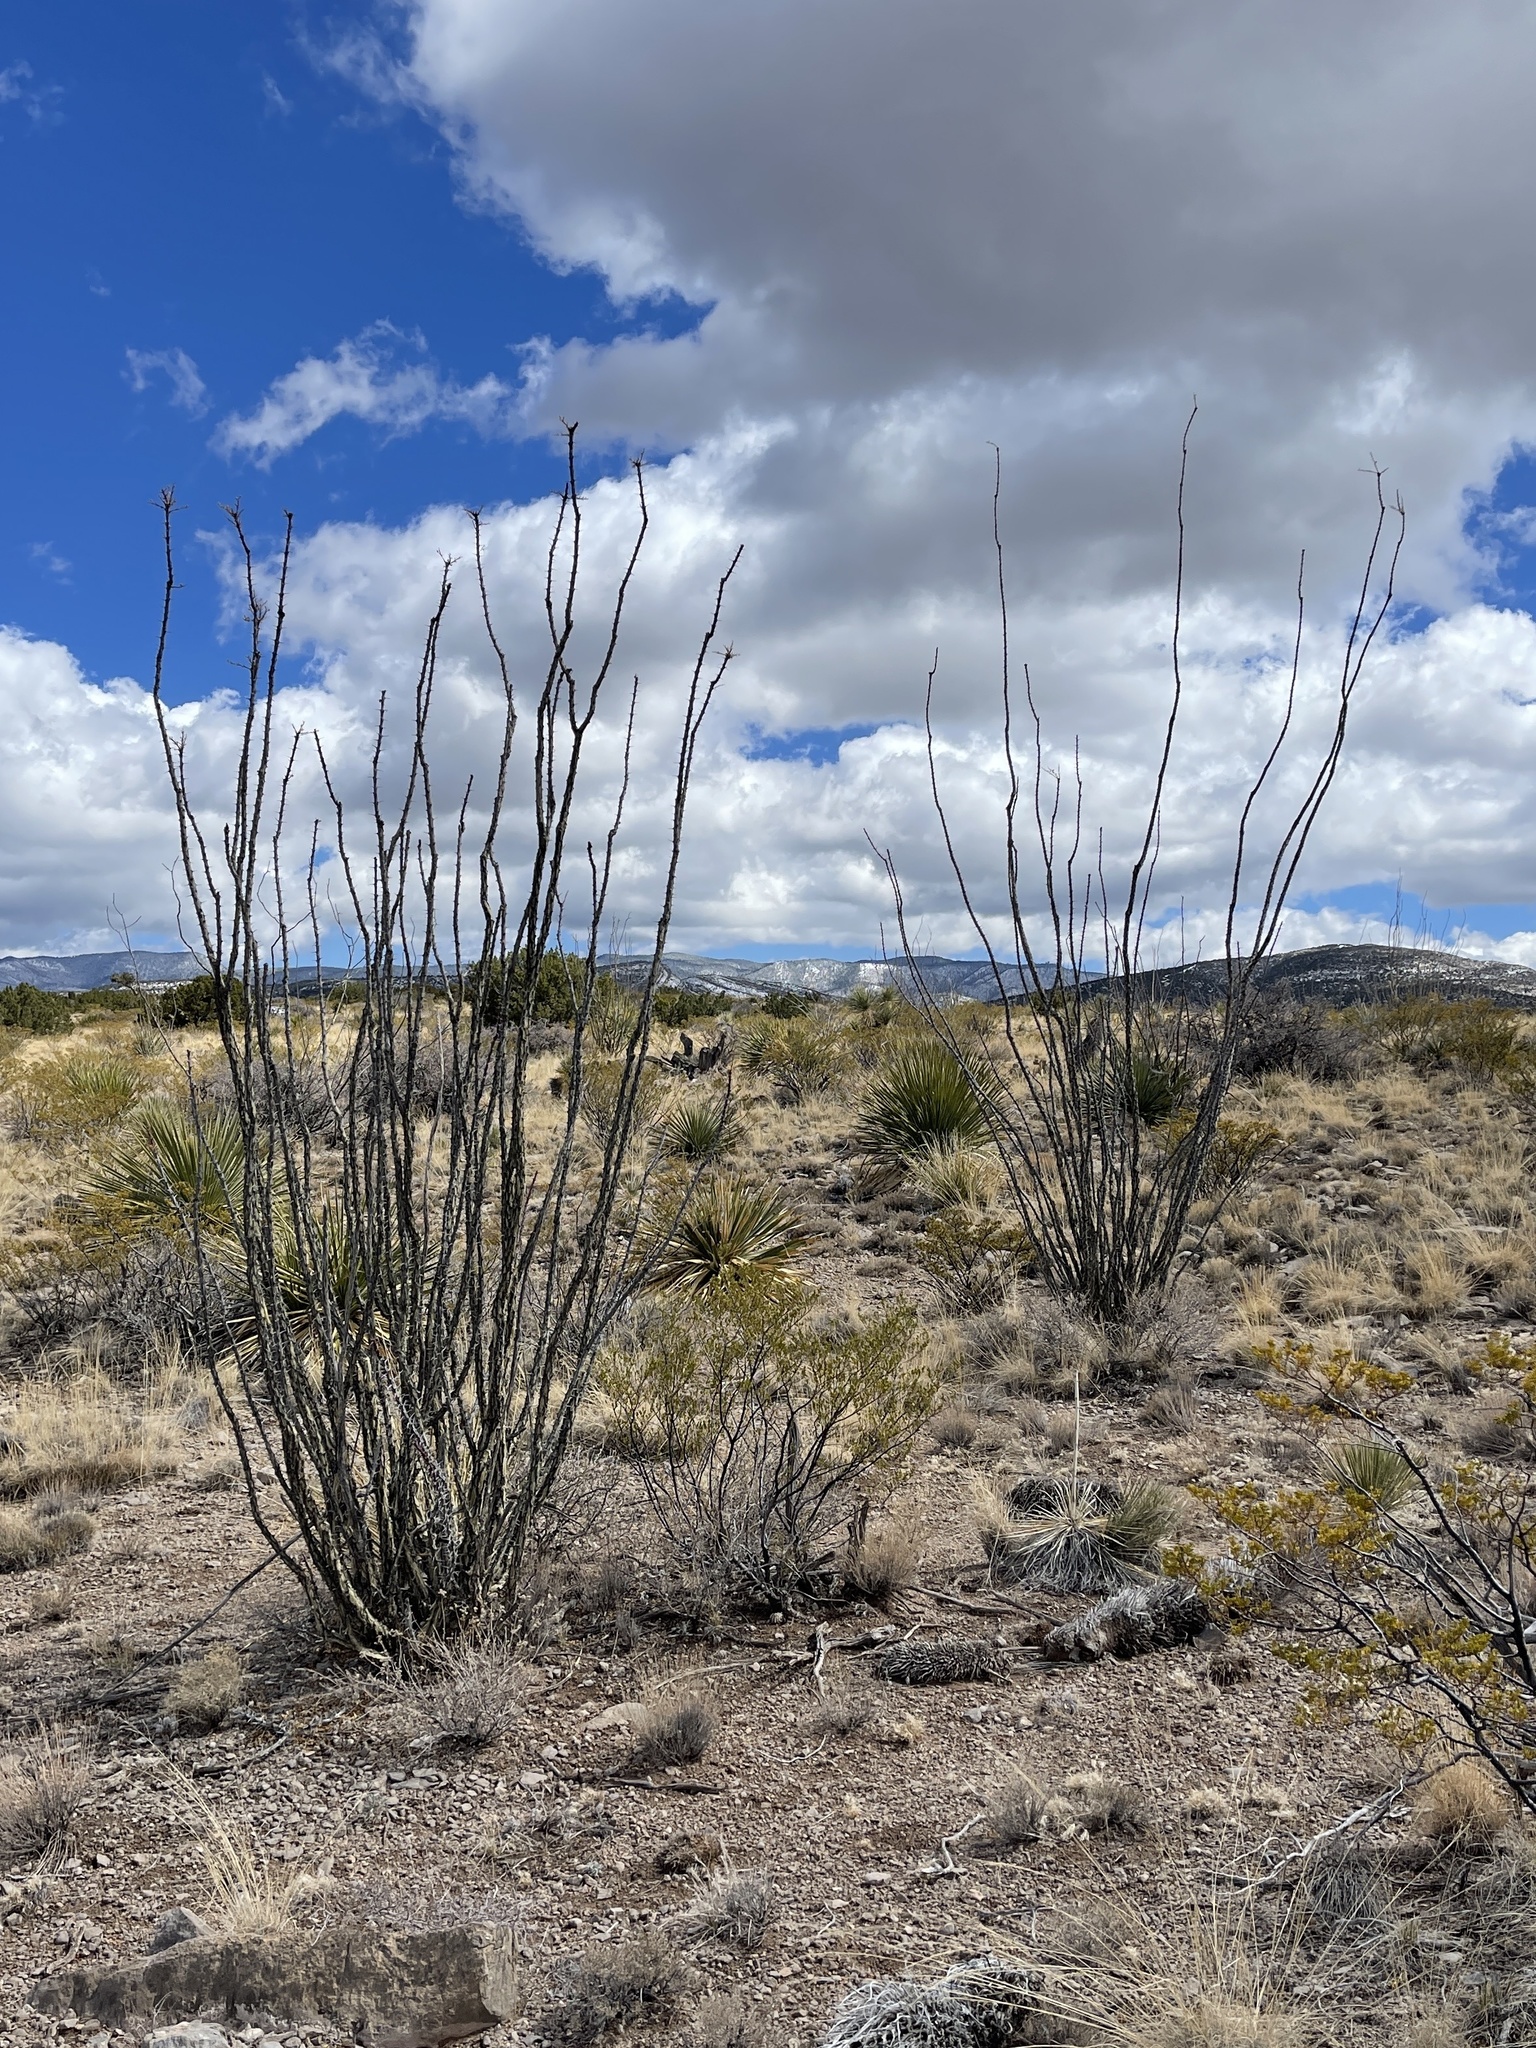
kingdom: Plantae
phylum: Tracheophyta
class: Magnoliopsida
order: Ericales
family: Fouquieriaceae
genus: Fouquieria
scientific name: Fouquieria splendens
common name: Vine-cactus
